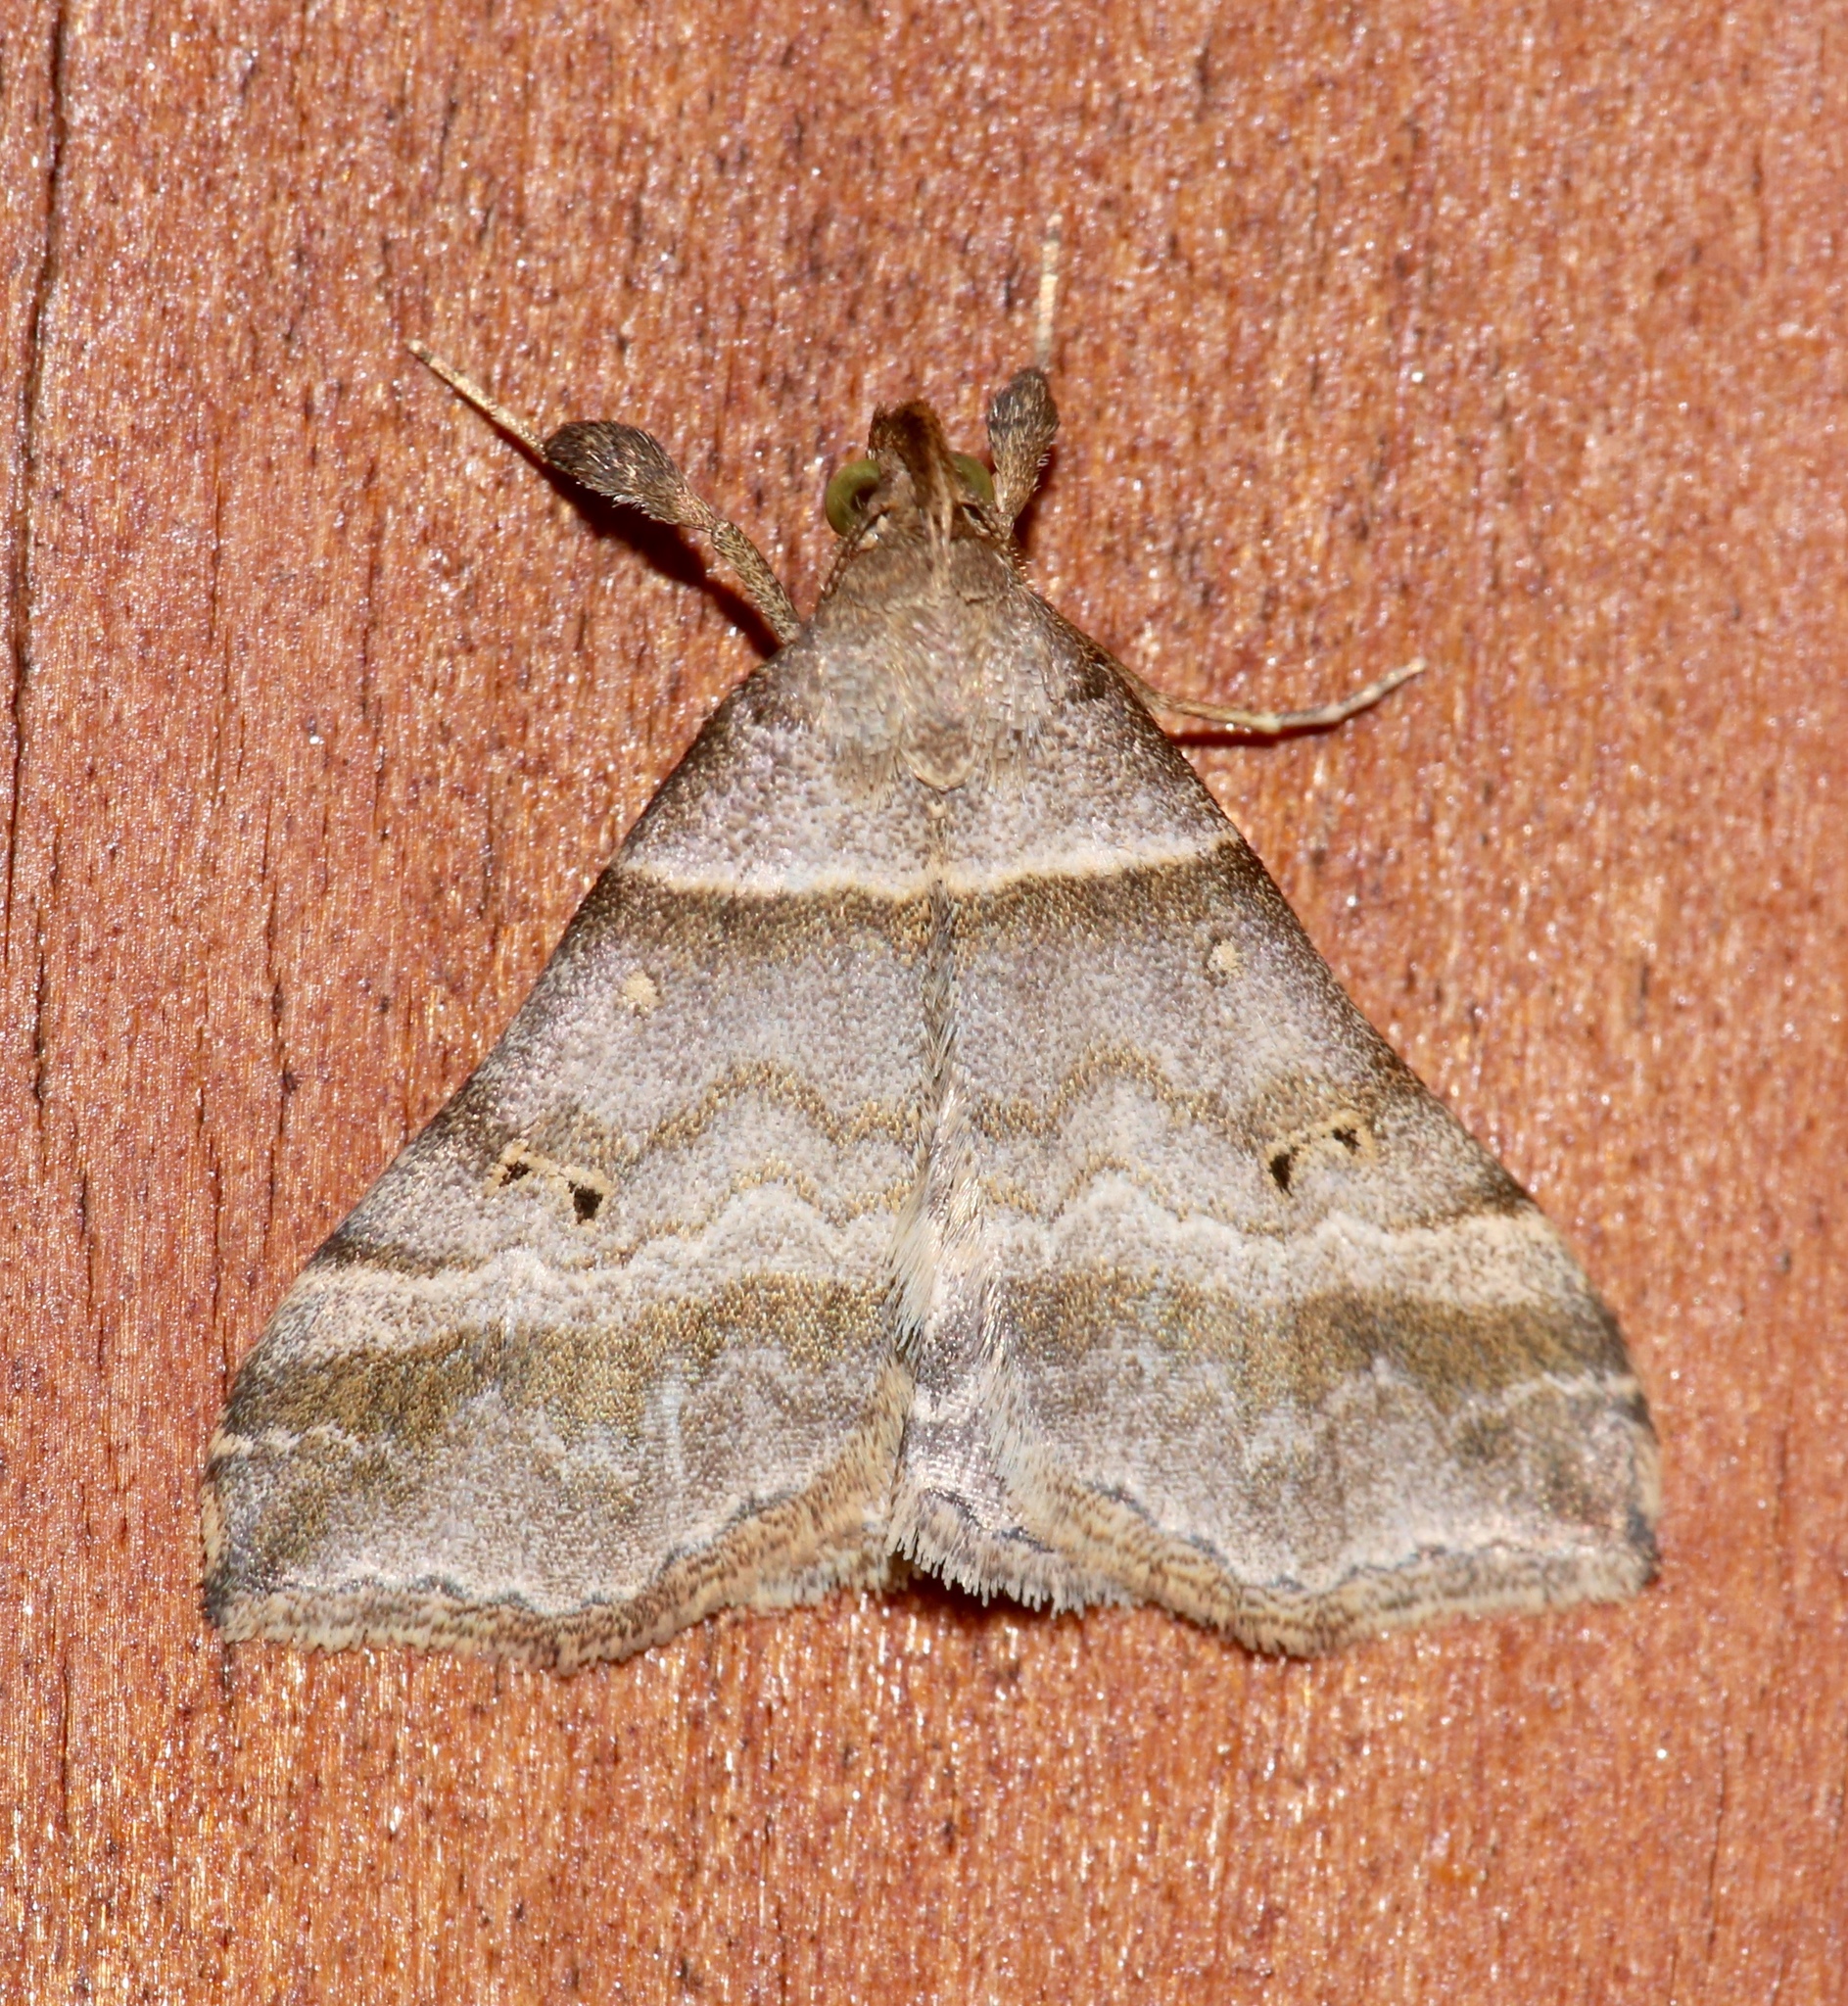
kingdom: Animalia
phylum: Arthropoda
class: Insecta
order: Lepidoptera
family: Erebidae
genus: Phaeolita
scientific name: Phaeolita pyramusalis
